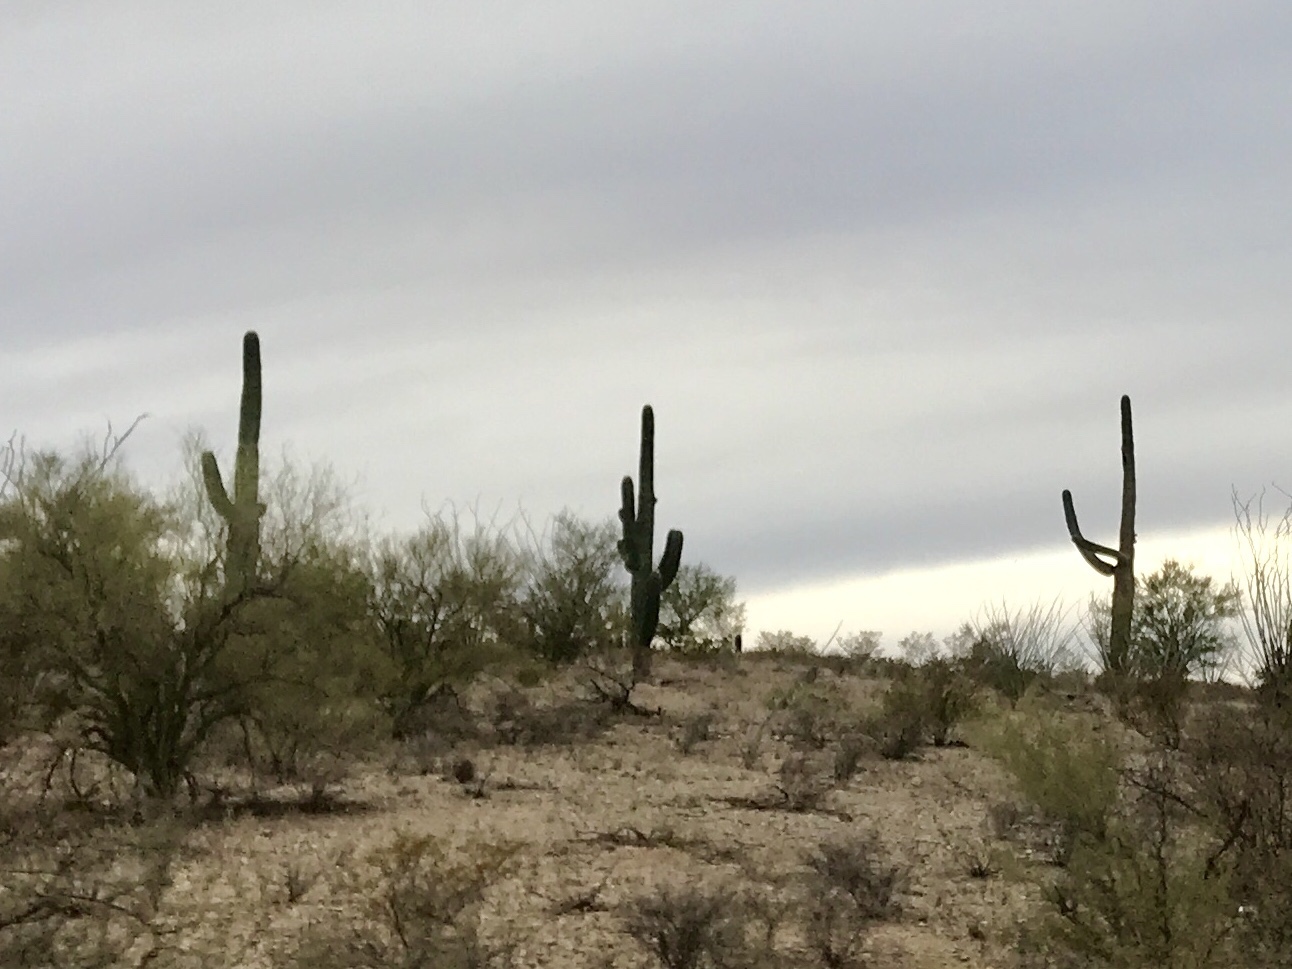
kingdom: Plantae
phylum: Tracheophyta
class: Magnoliopsida
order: Caryophyllales
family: Cactaceae
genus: Carnegiea
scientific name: Carnegiea gigantea
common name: Saguaro
